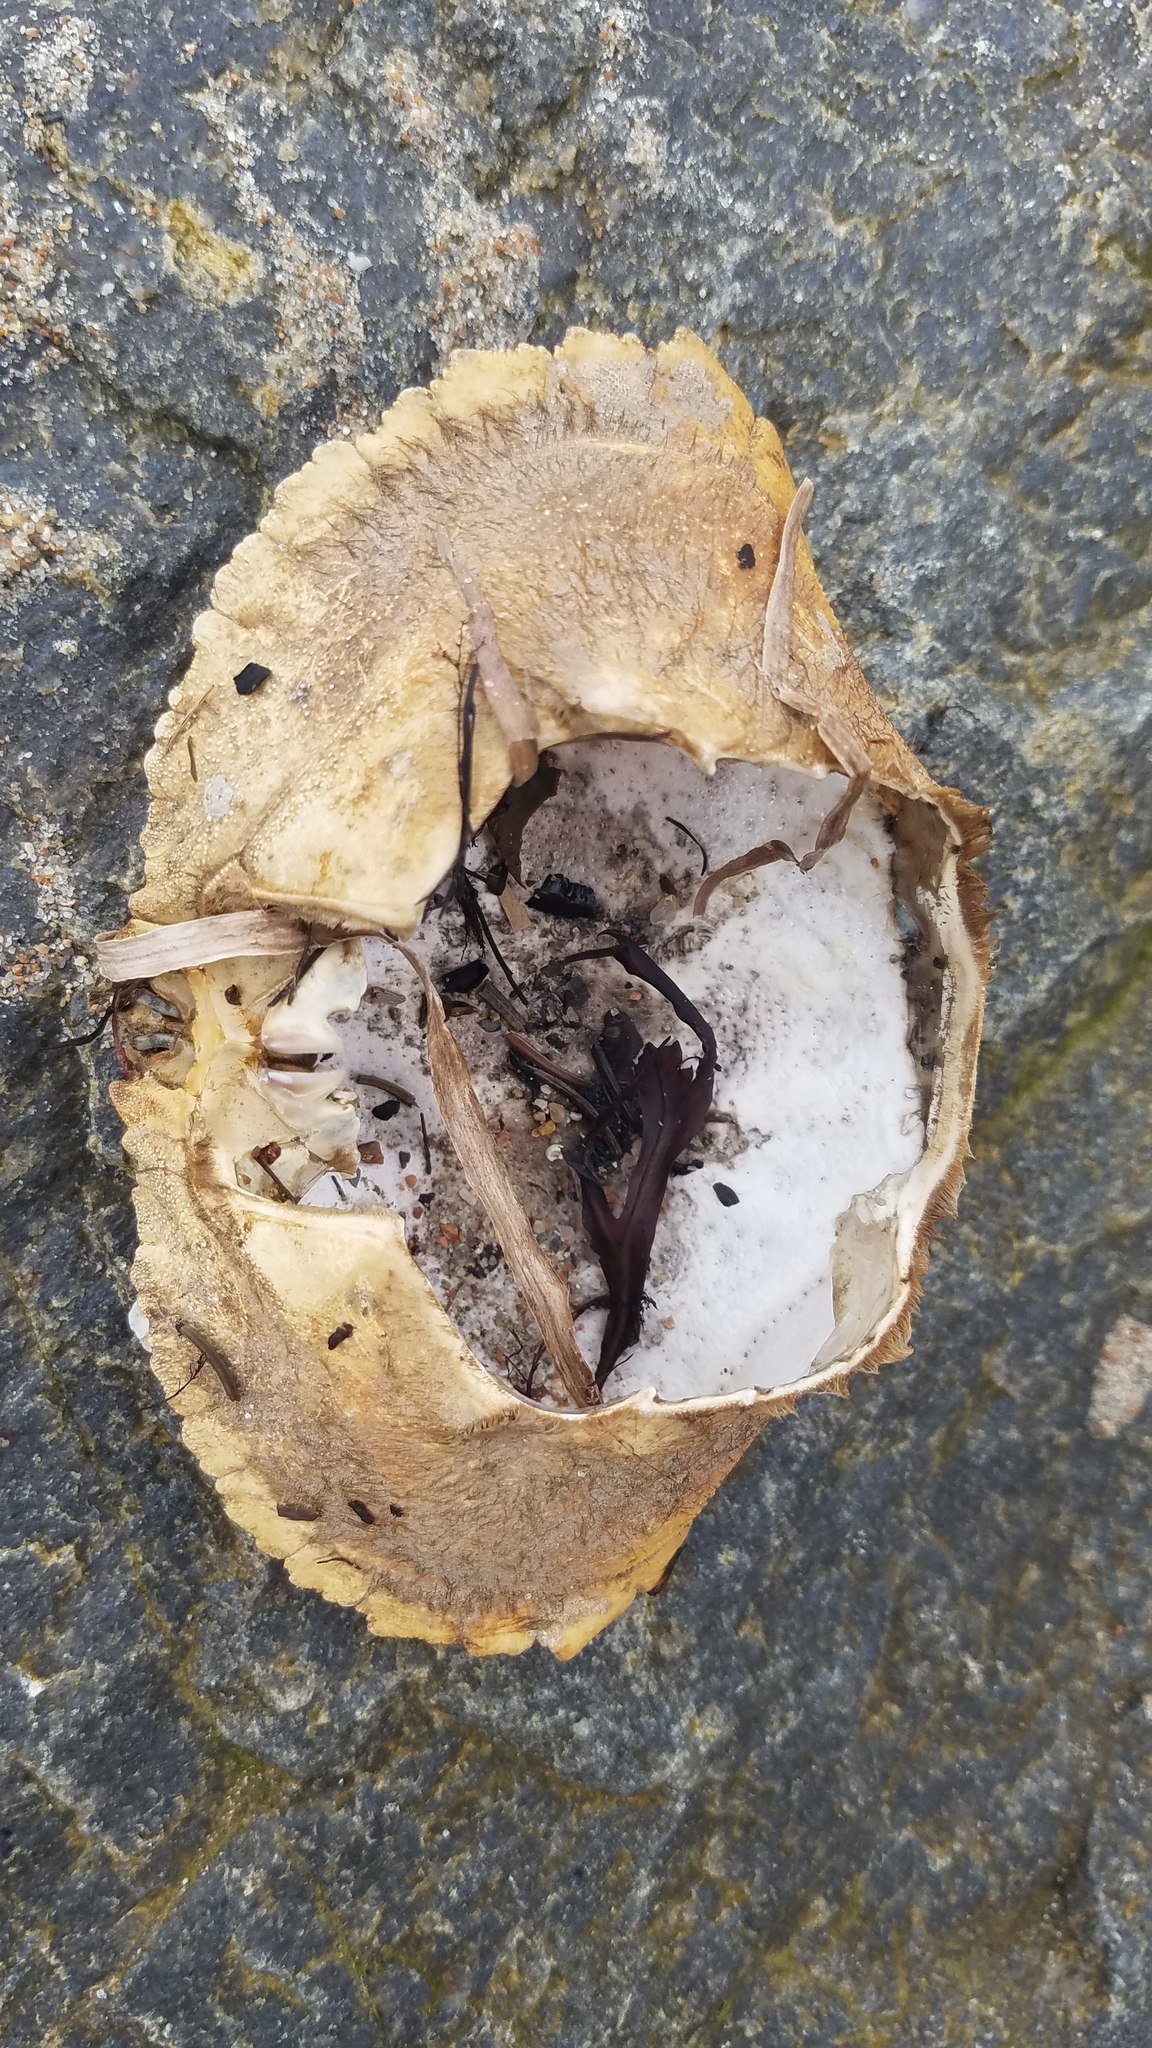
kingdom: Animalia
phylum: Arthropoda
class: Malacostraca
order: Decapoda
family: Cancridae
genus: Cancer
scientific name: Cancer borealis
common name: Jonah crab
